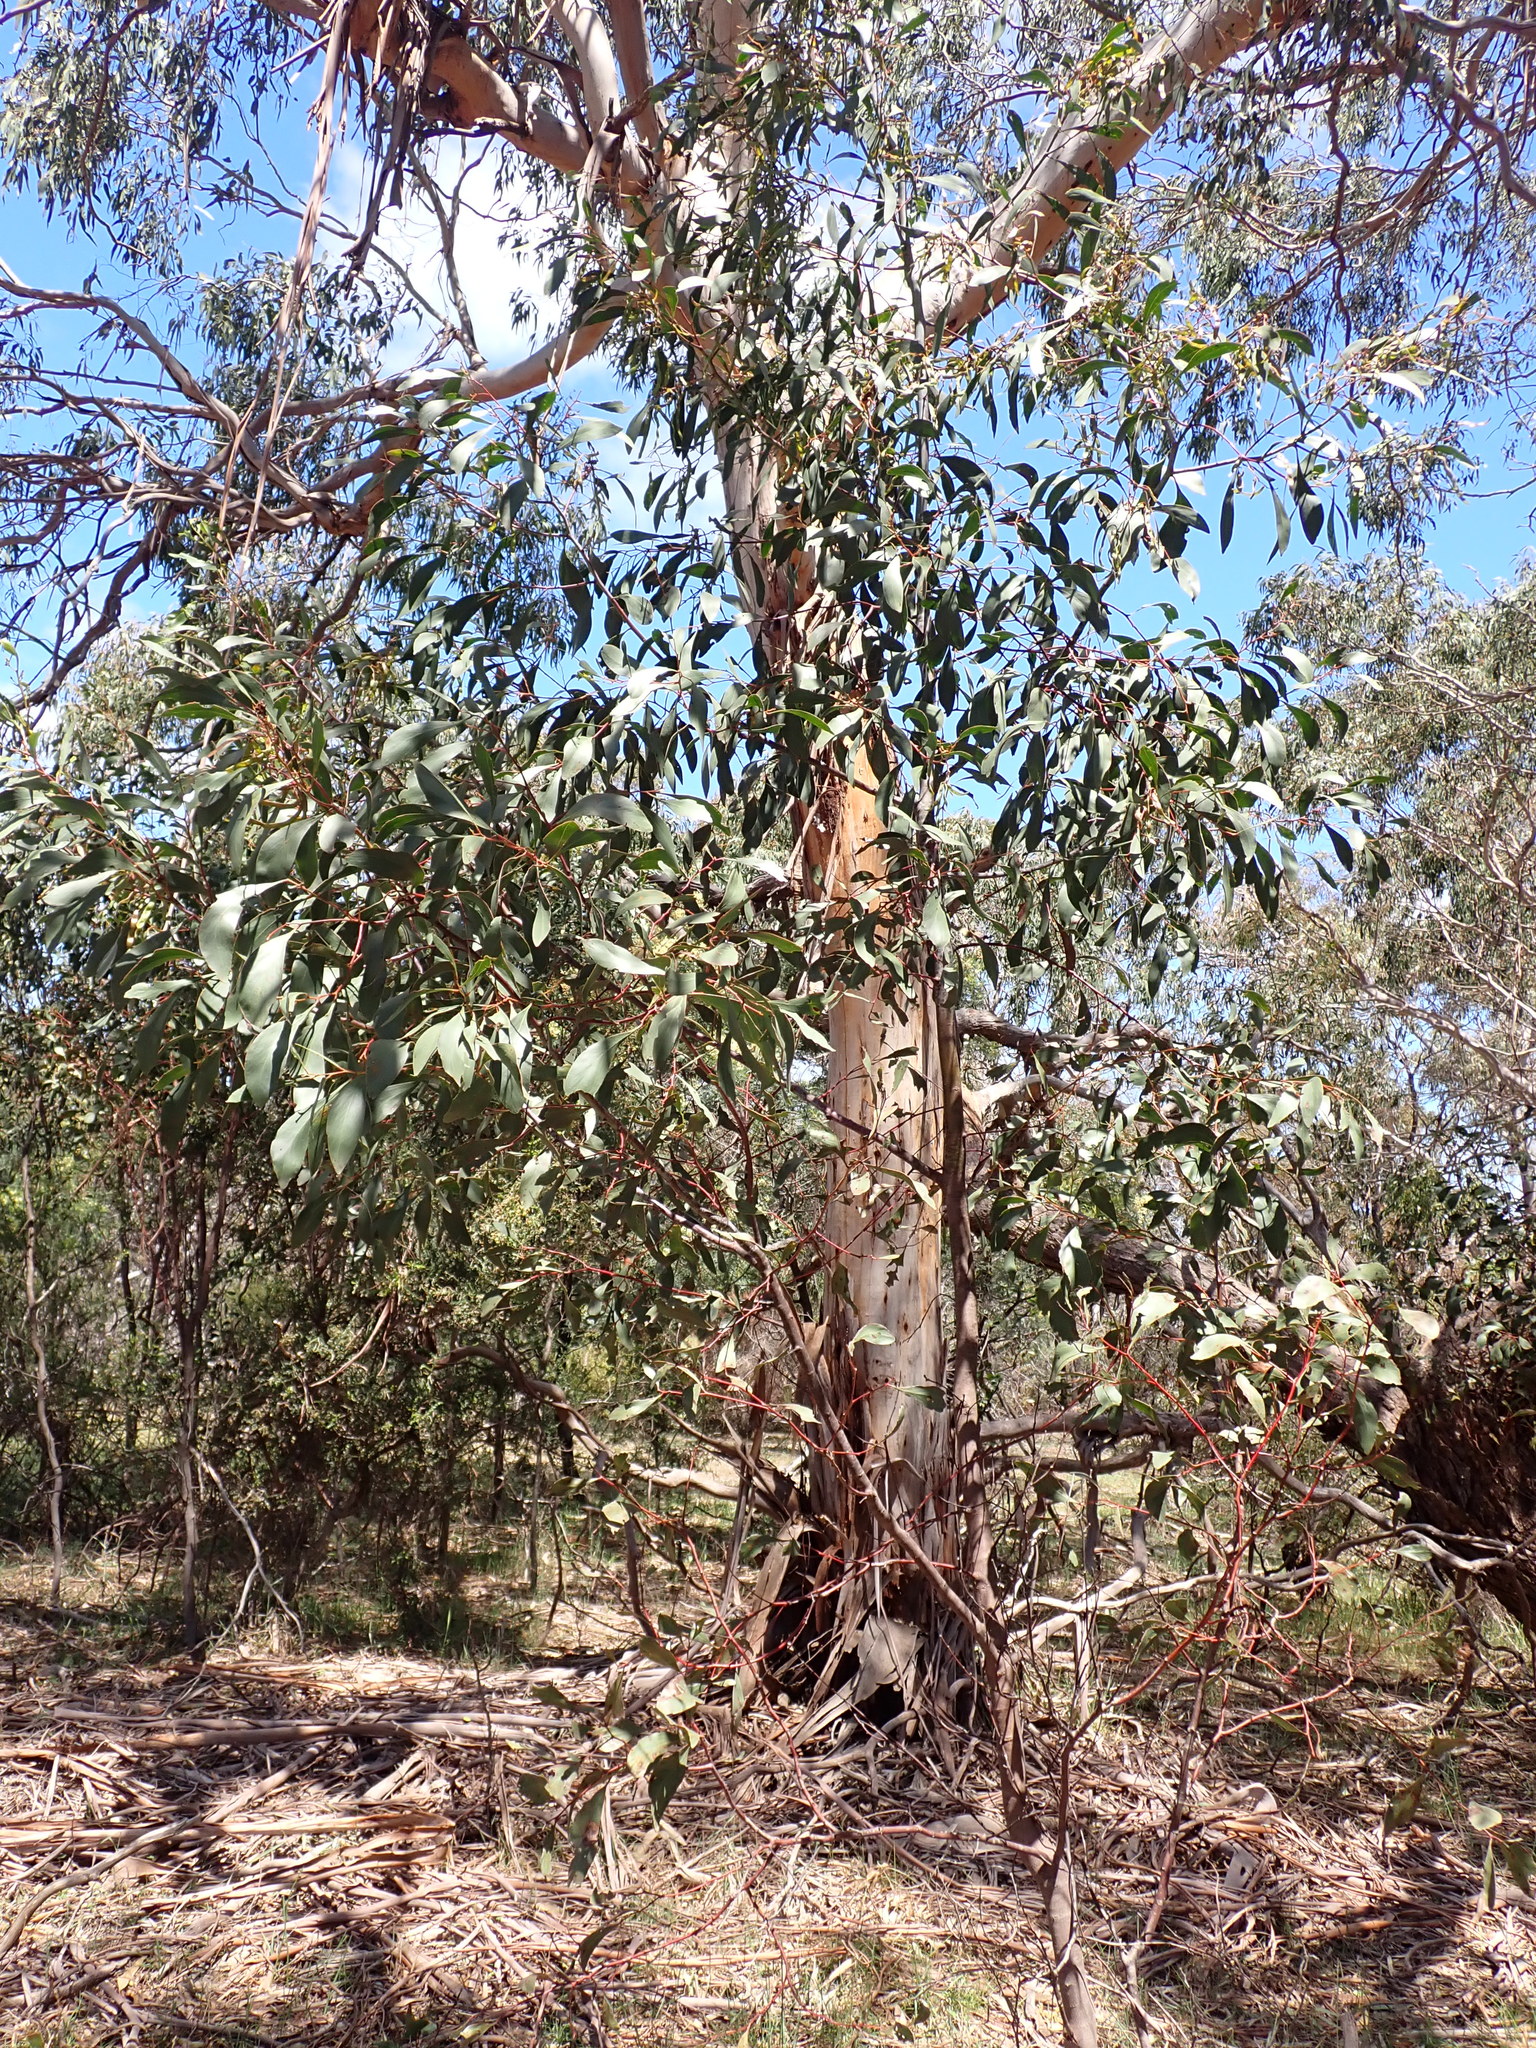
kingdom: Plantae
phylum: Tracheophyta
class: Magnoliopsida
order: Fabales
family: Fabaceae
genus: Acacia
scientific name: Acacia pycnantha
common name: Golden wattle
